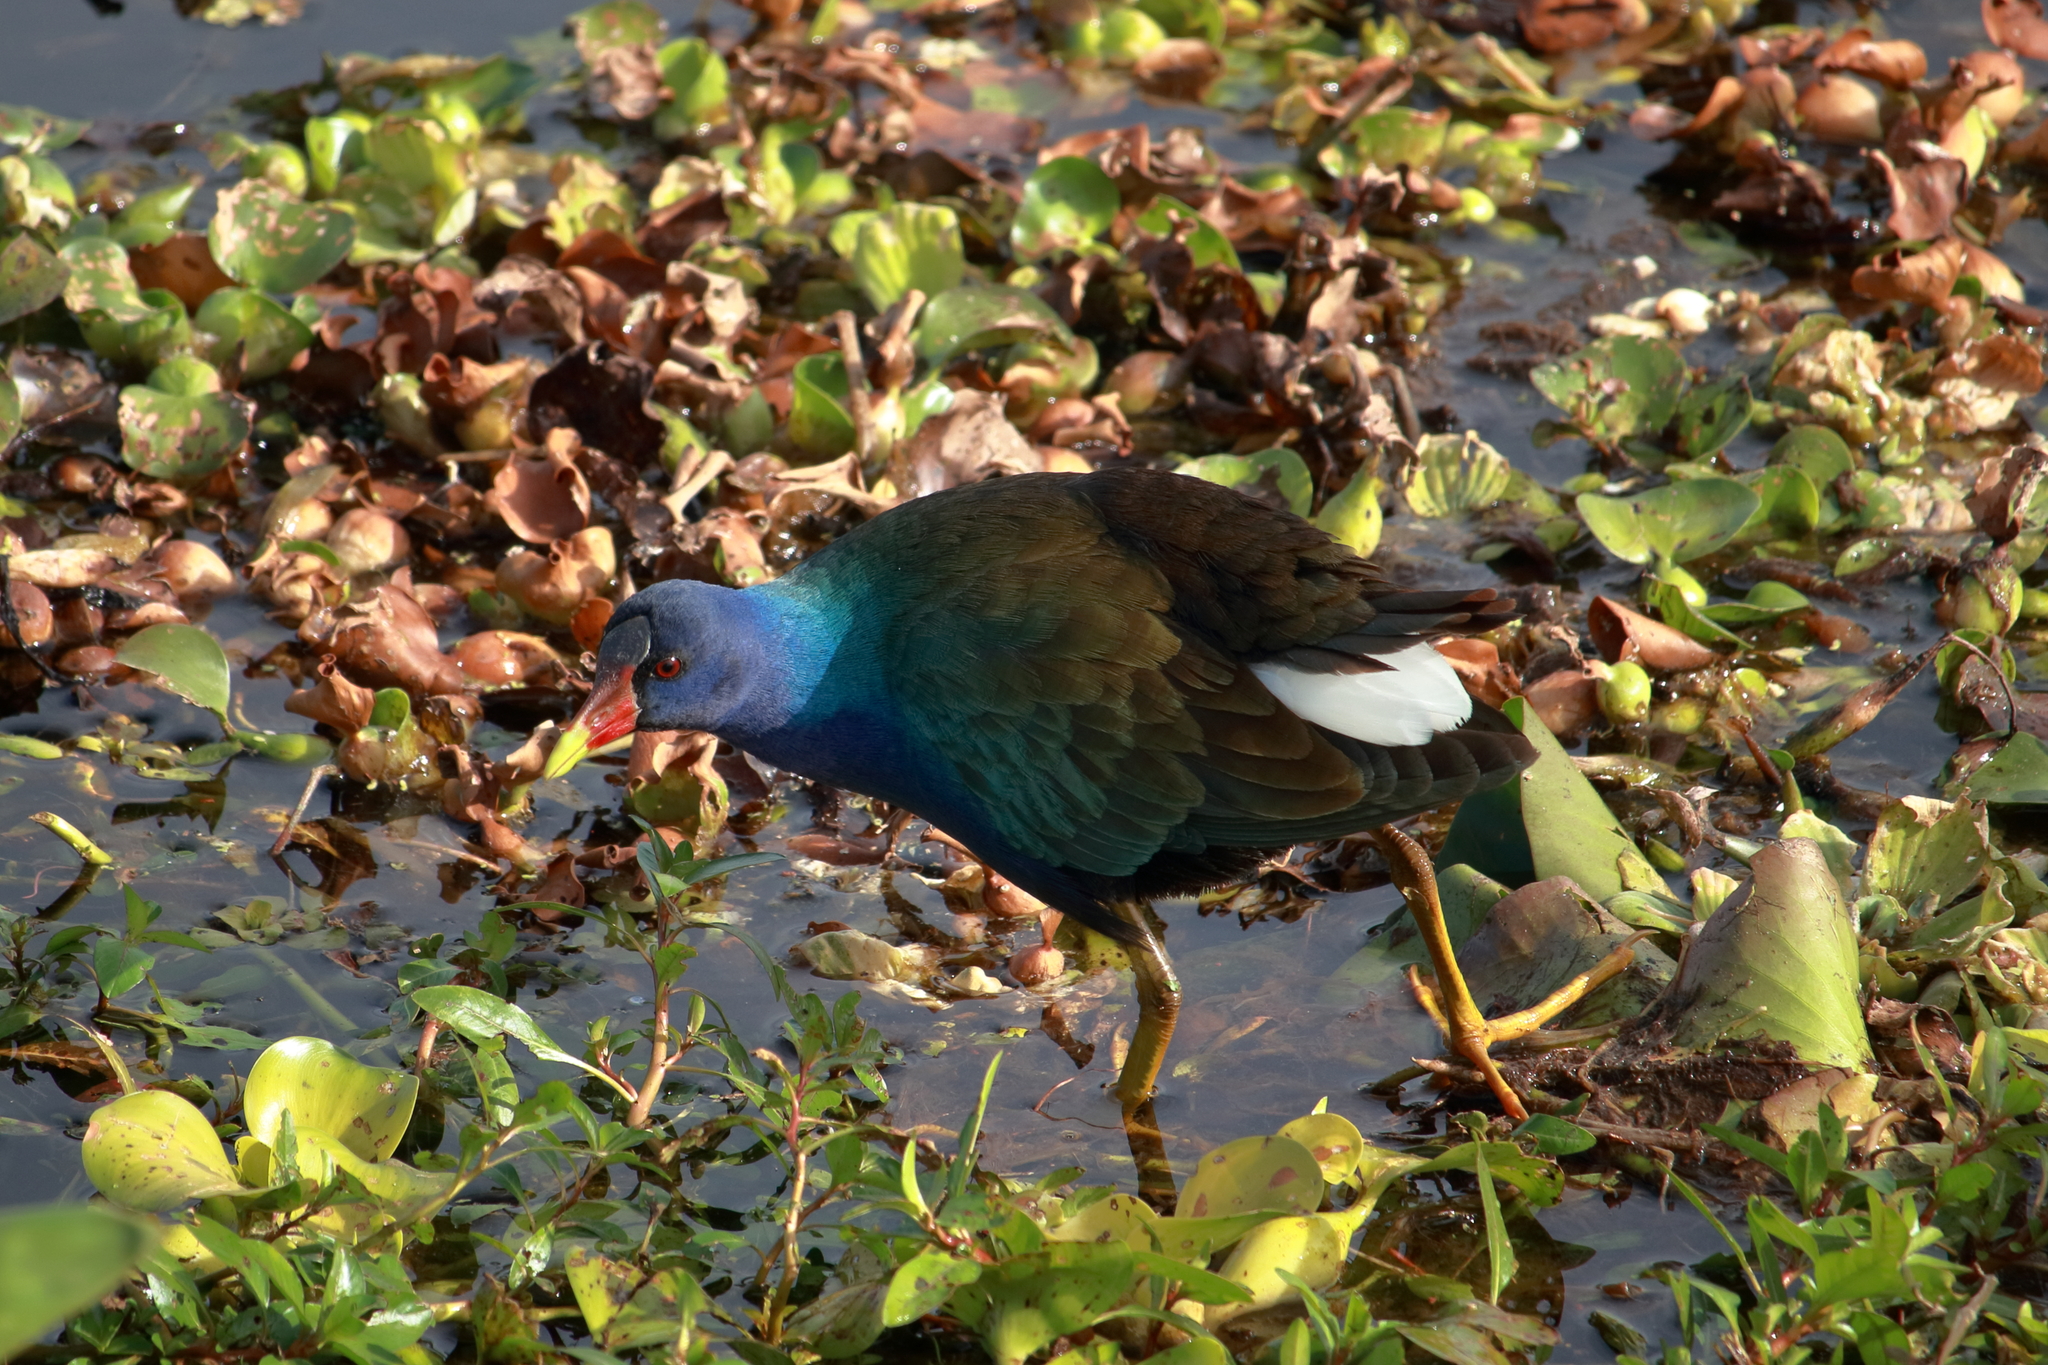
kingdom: Animalia
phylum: Chordata
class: Aves
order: Gruiformes
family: Rallidae
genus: Porphyrio
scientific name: Porphyrio martinica
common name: Purple gallinule
